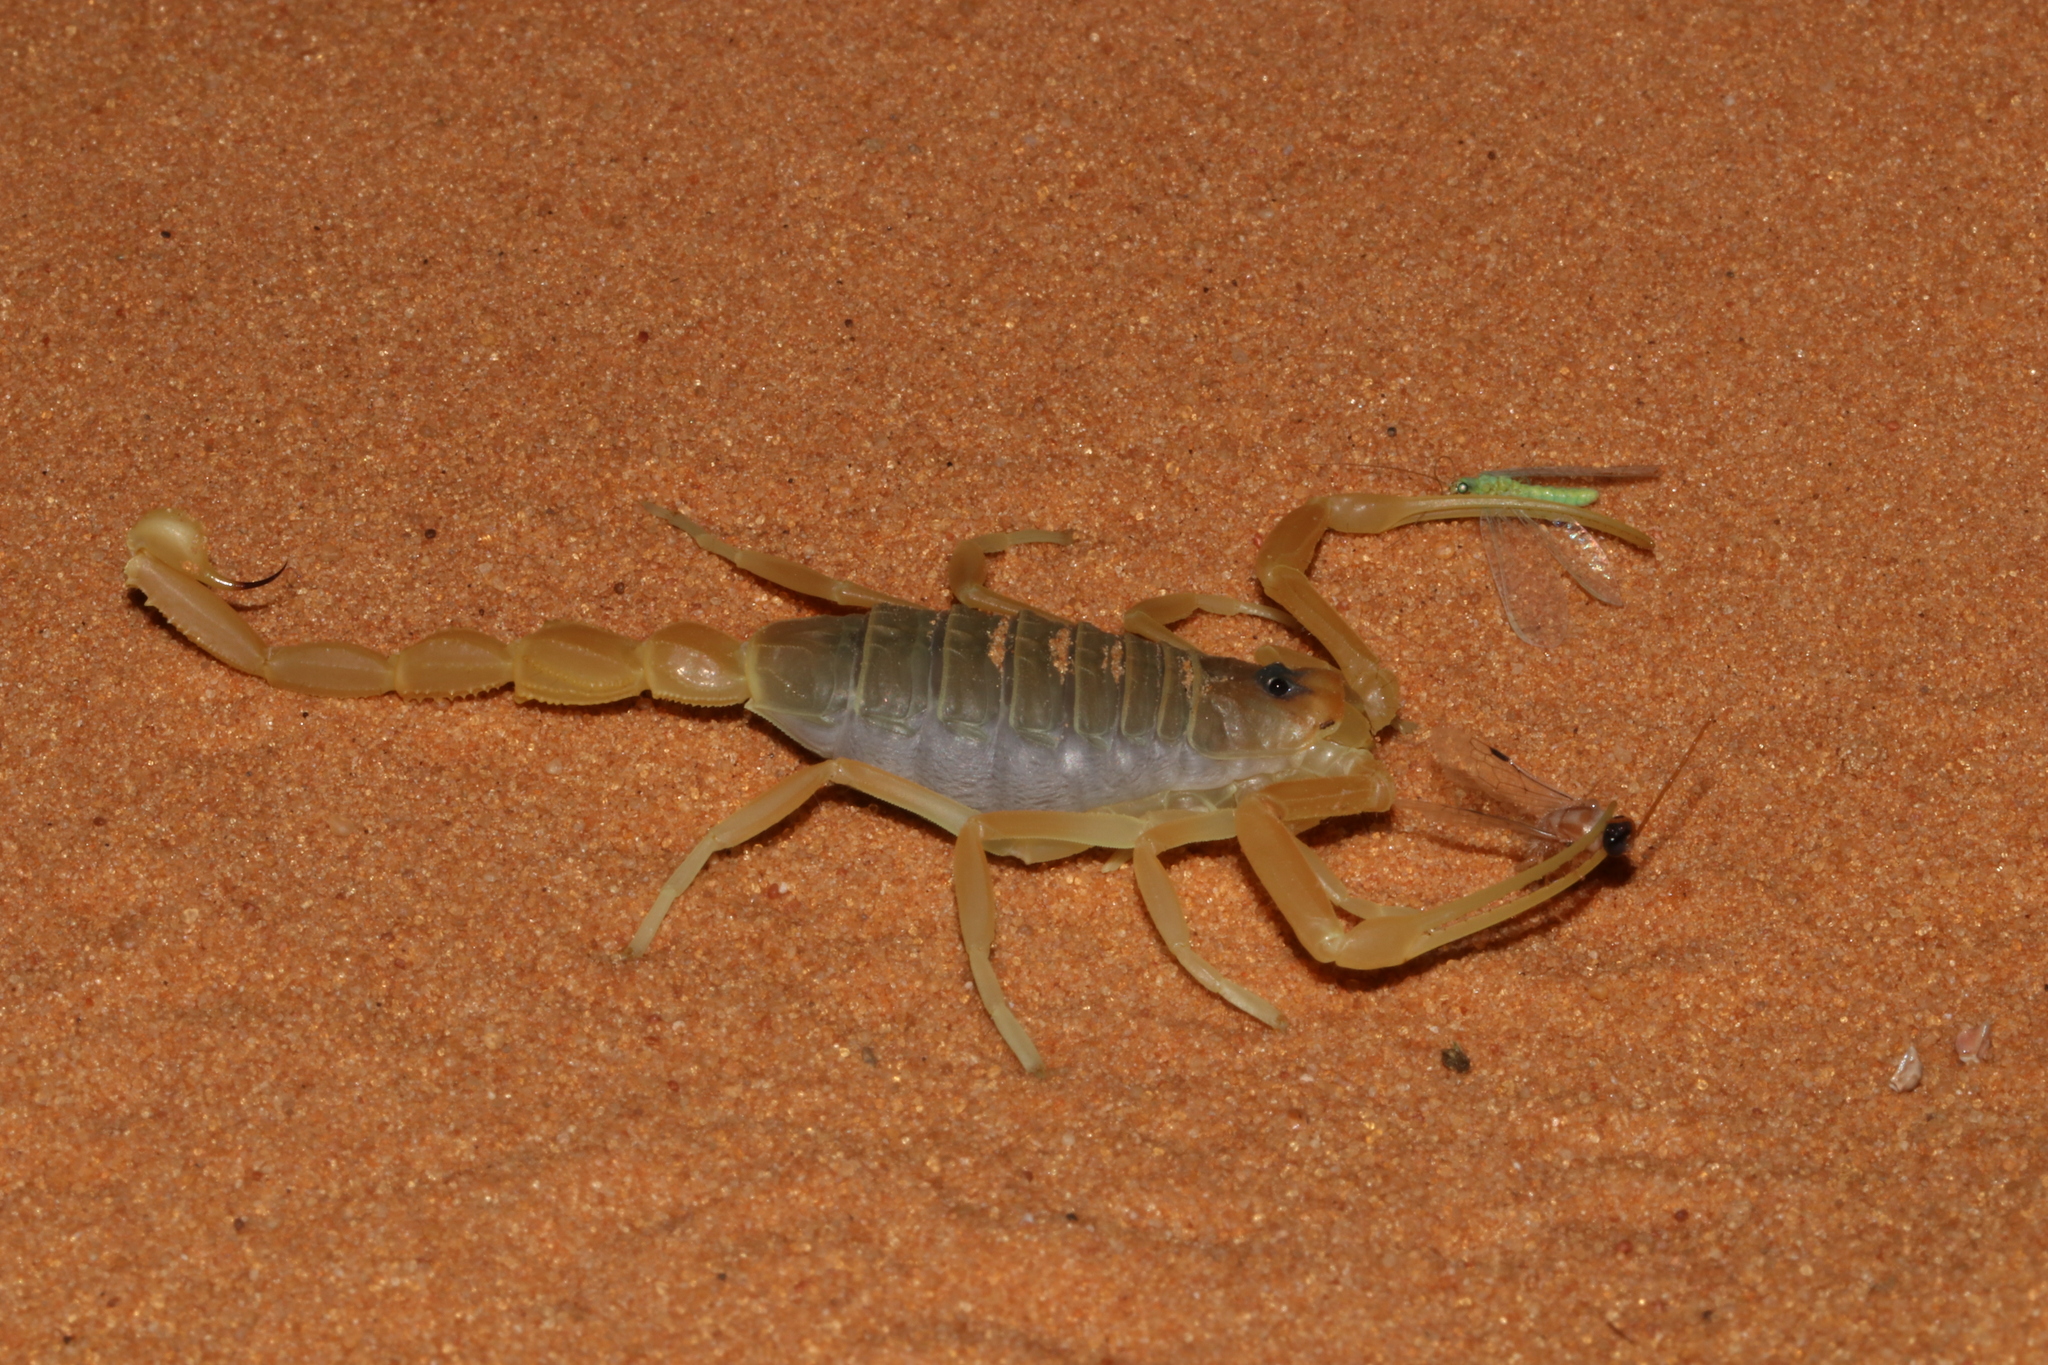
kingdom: Animalia
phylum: Arthropoda
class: Arachnida
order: Scorpiones
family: Buthidae
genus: Apistobuthus
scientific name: Apistobuthus pterygocercus
